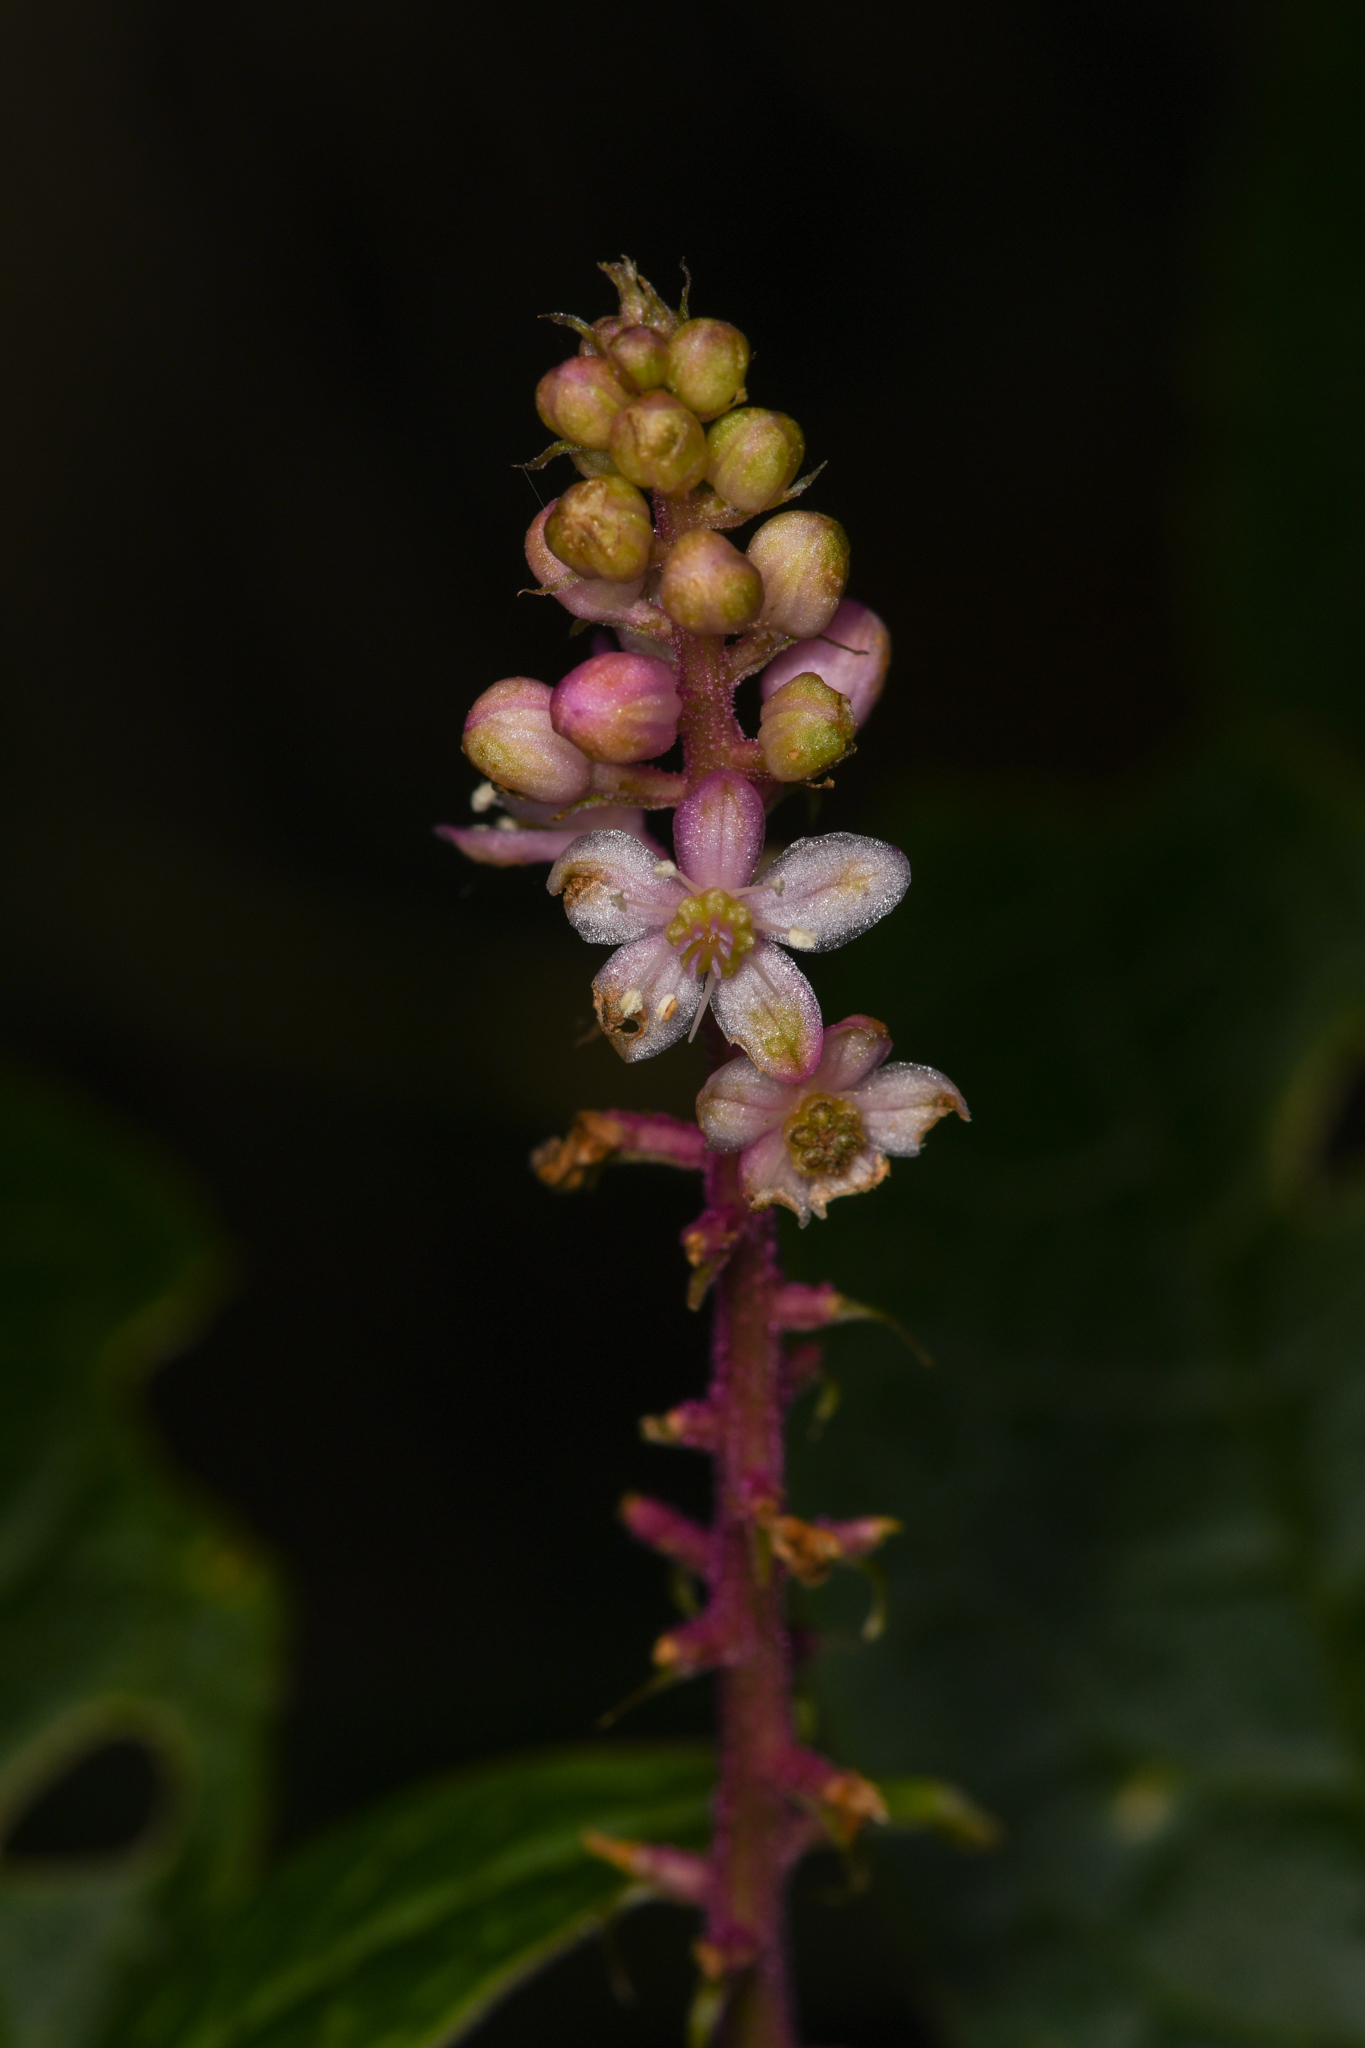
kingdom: Plantae
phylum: Tracheophyta
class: Magnoliopsida
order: Caryophyllales
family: Phytolaccaceae
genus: Phytolacca
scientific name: Phytolacca rugosa
